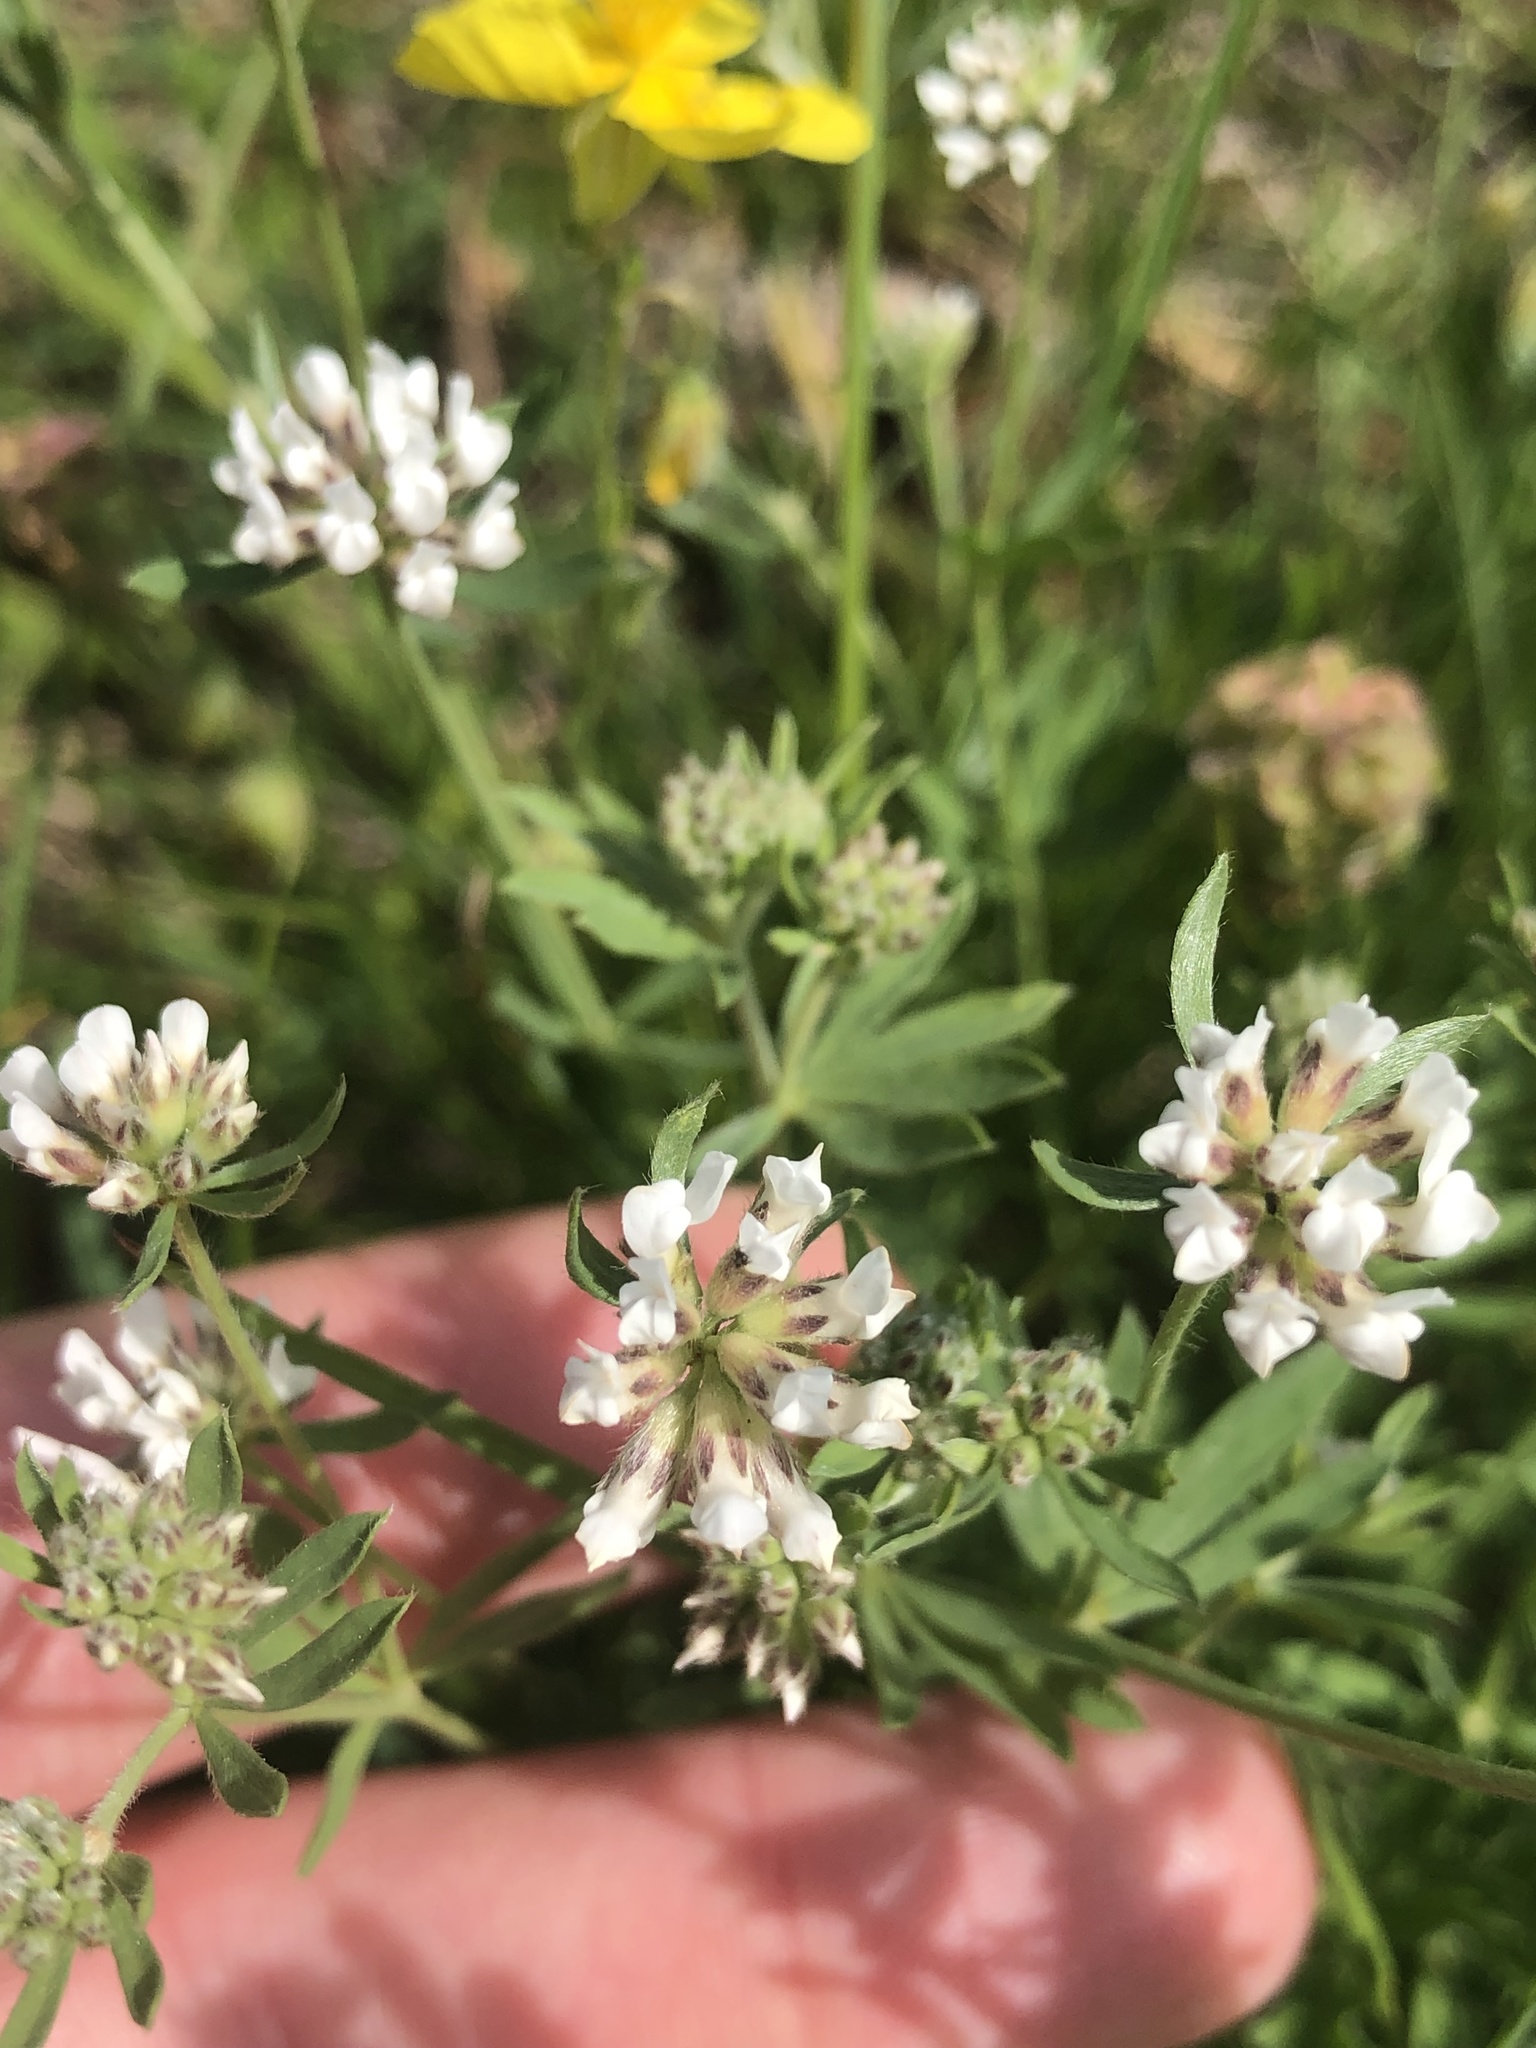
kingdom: Plantae
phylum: Tracheophyta
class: Magnoliopsida
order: Fabales
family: Fabaceae
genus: Lotus
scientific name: Lotus germanicus
